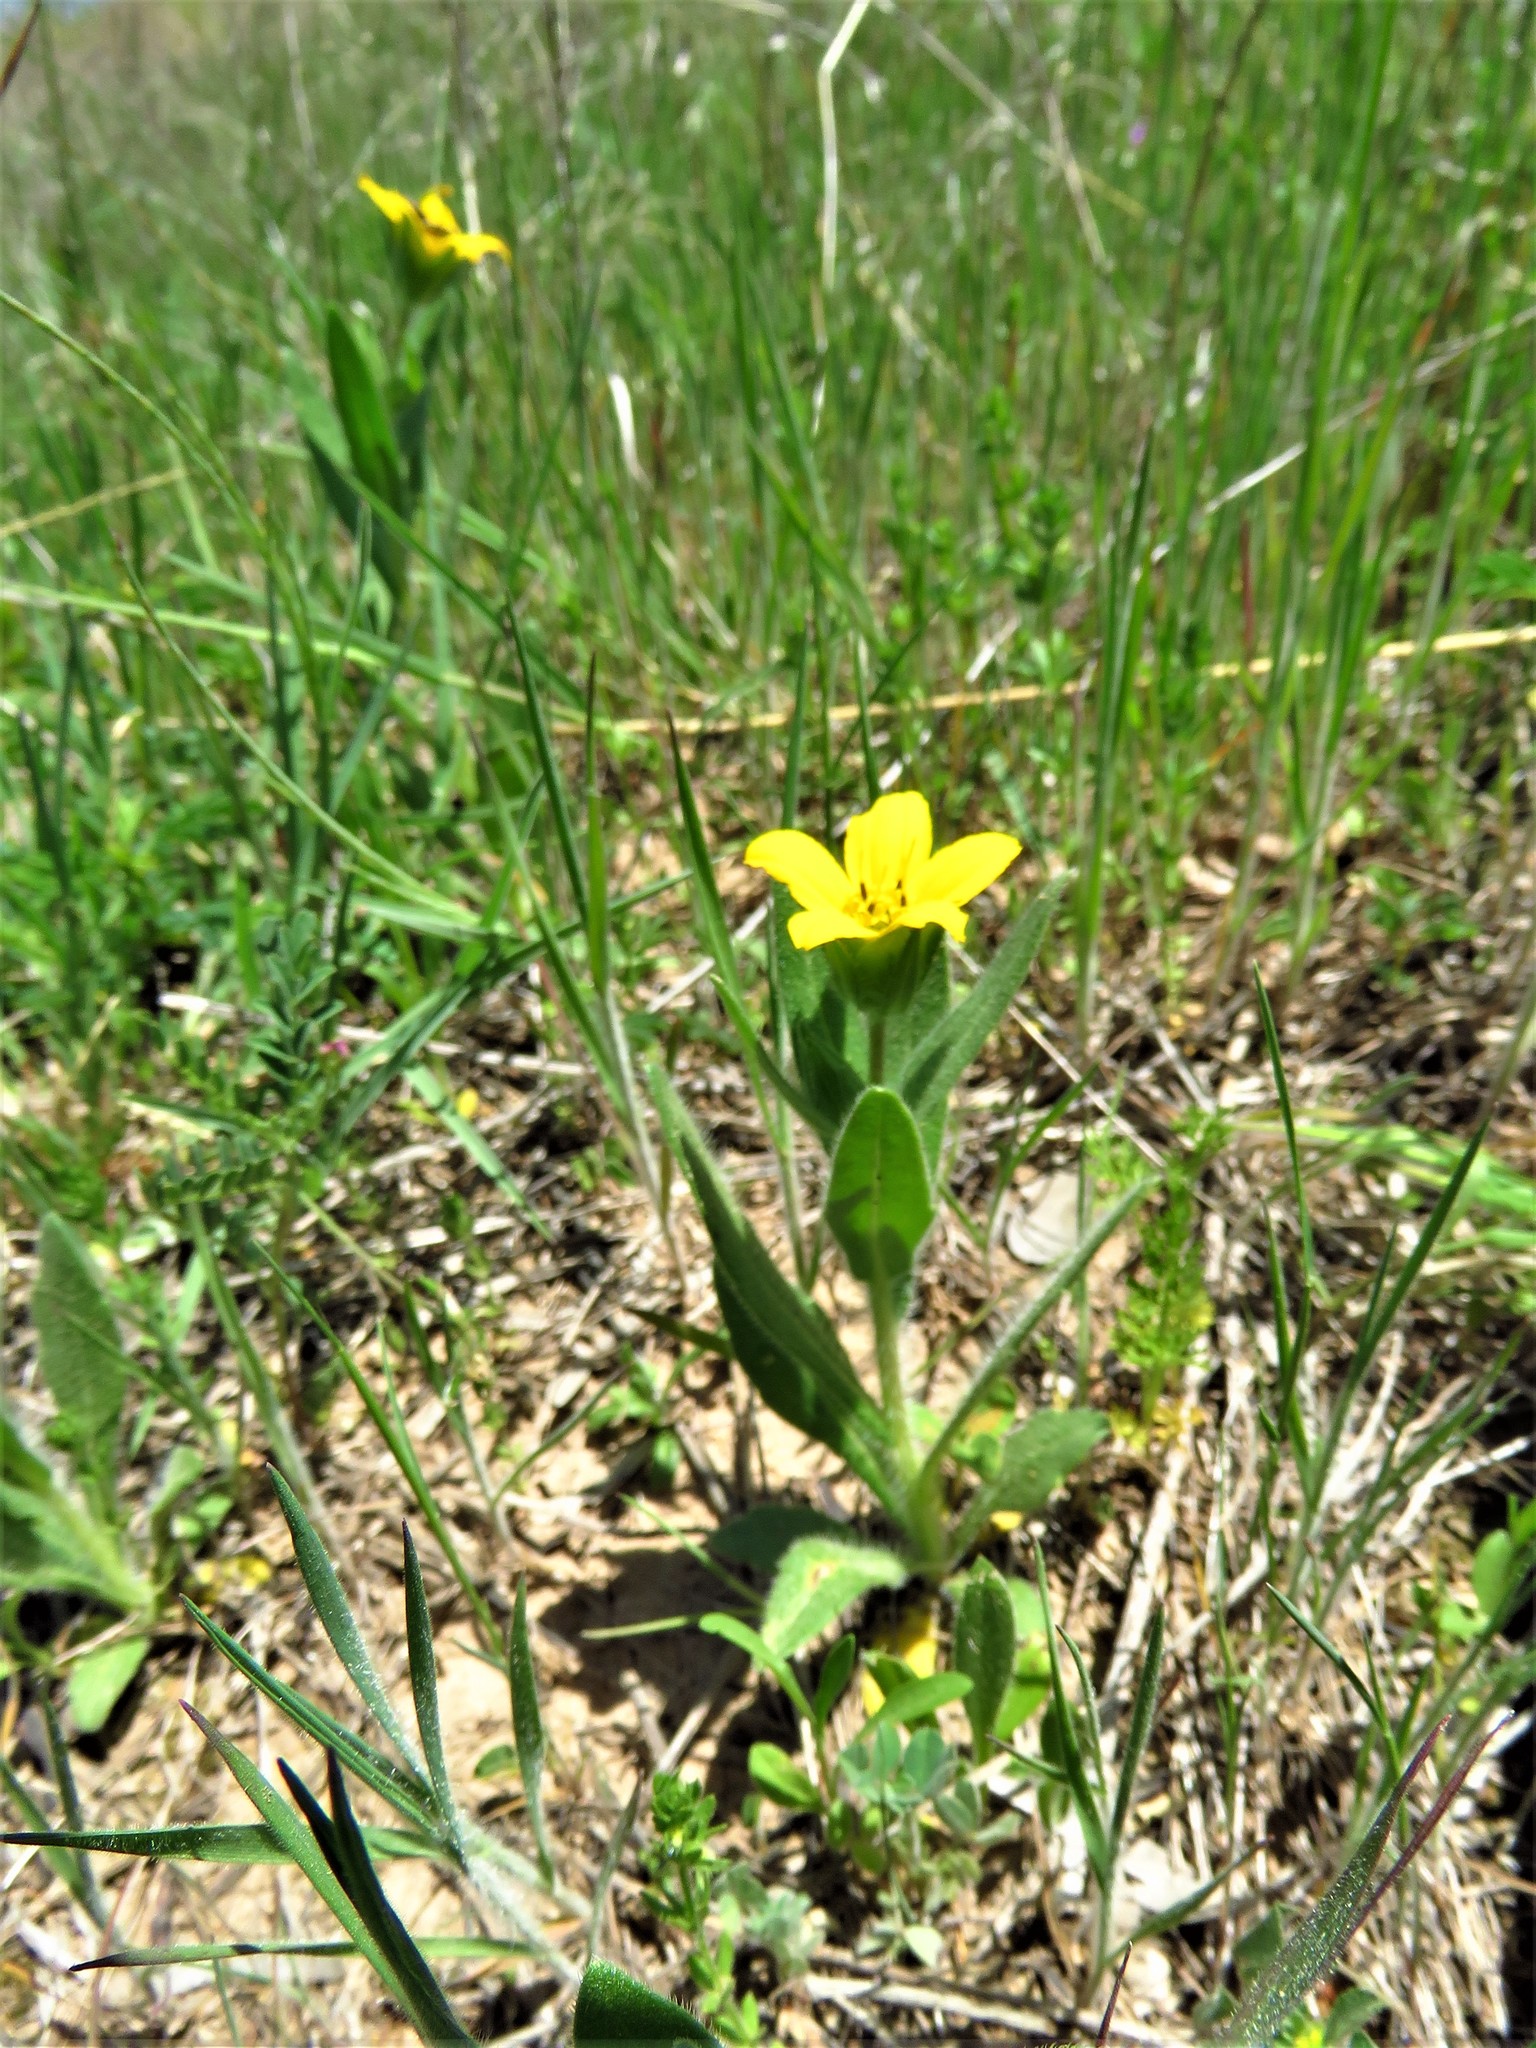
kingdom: Plantae
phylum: Tracheophyta
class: Magnoliopsida
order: Asterales
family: Asteraceae
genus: Lindheimera
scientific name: Lindheimera texana
